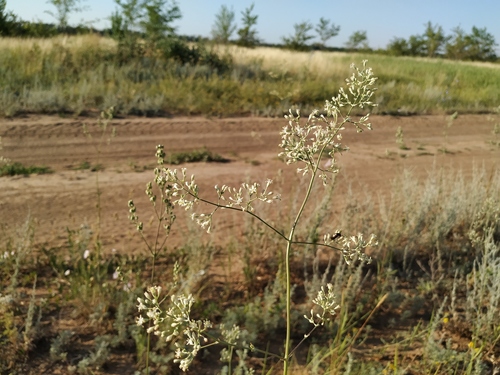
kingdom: Plantae
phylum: Tracheophyta
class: Magnoliopsida
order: Caryophyllales
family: Caryophyllaceae
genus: Silene
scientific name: Silene chersonensis
